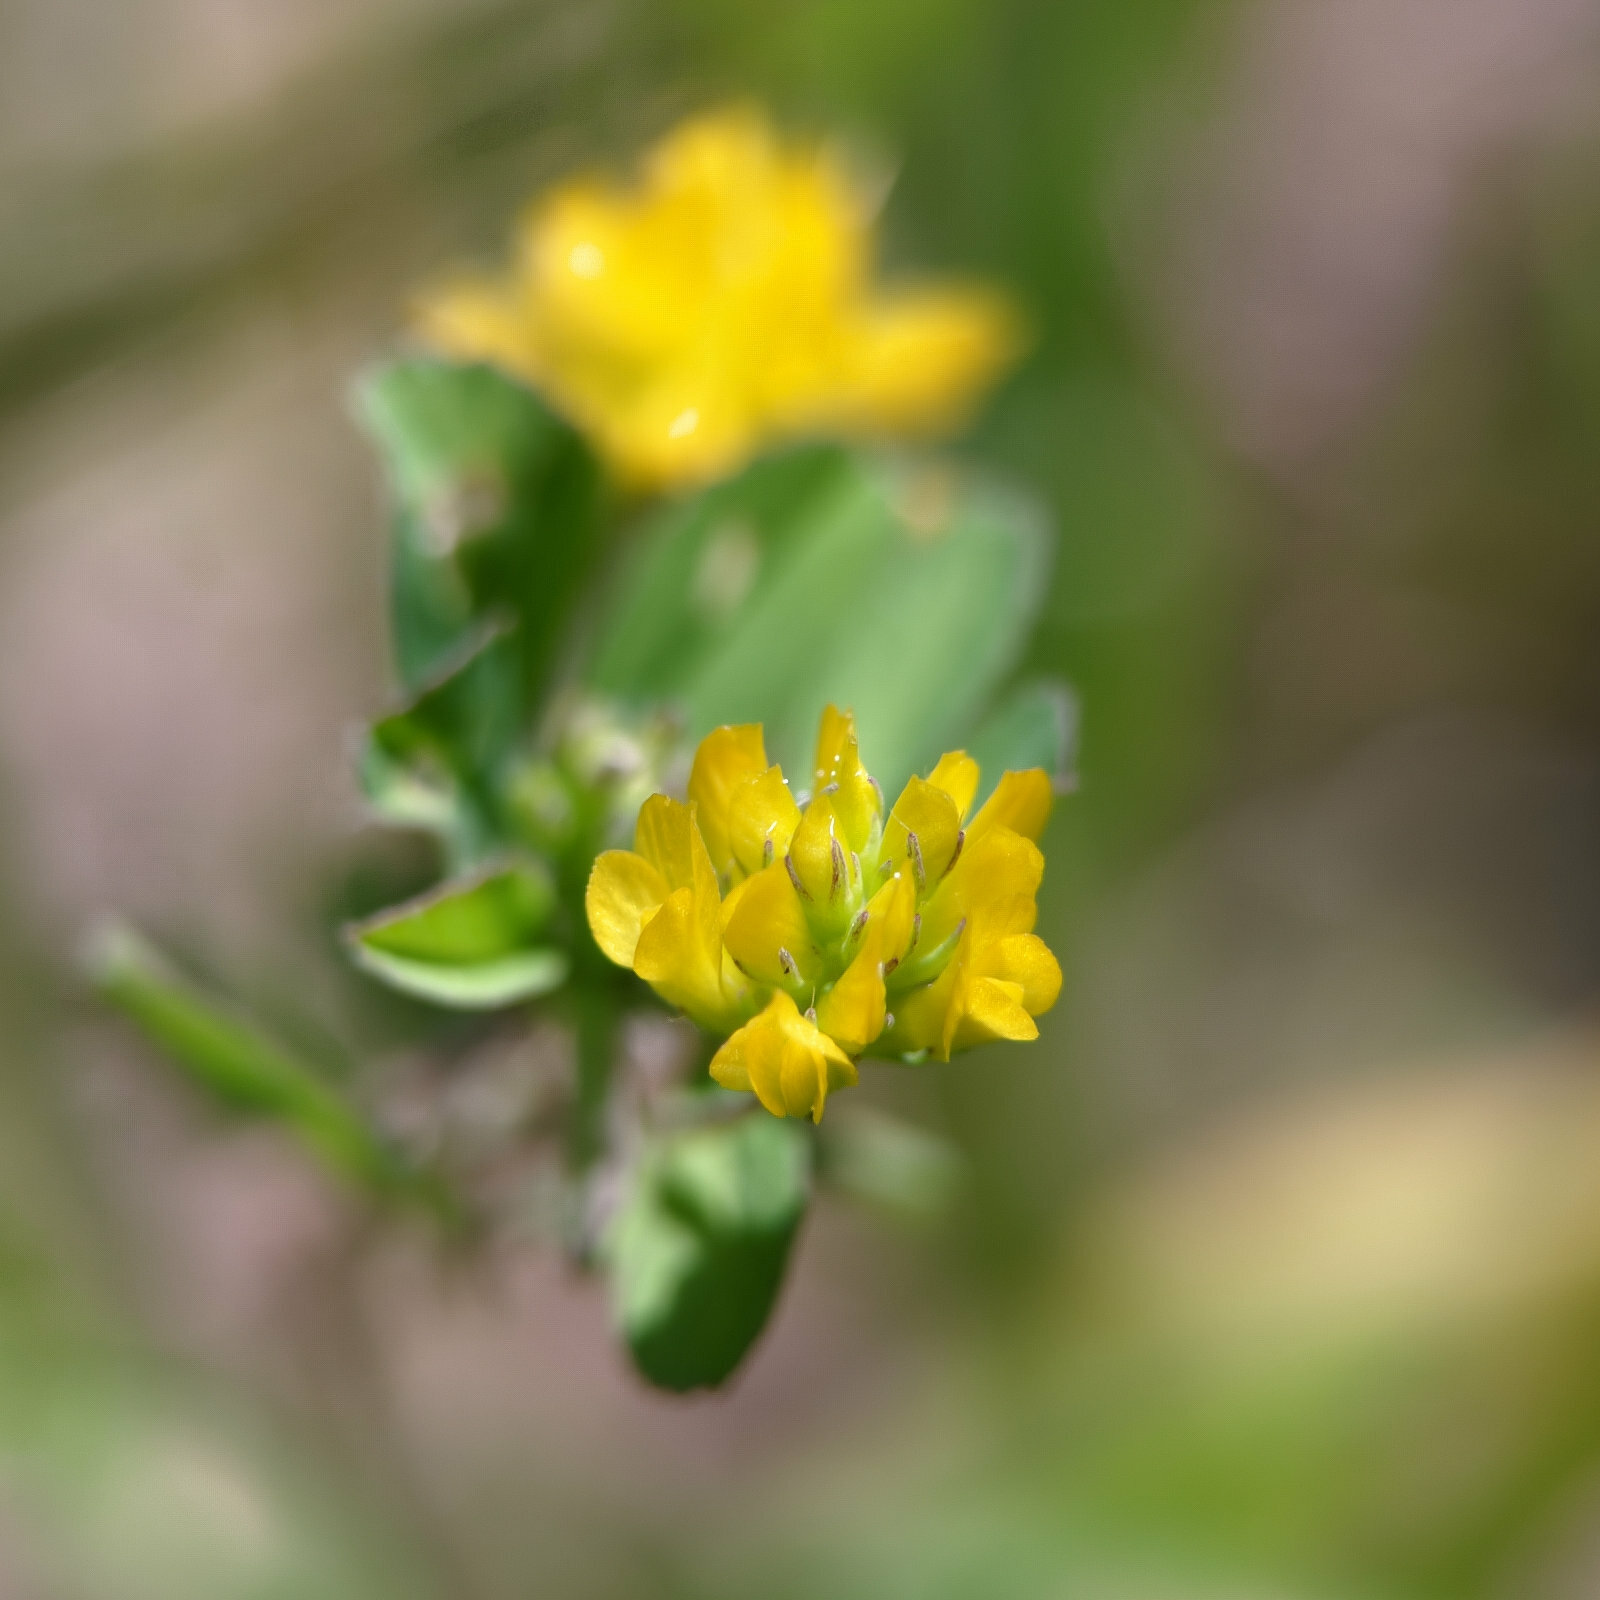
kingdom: Plantae
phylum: Tracheophyta
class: Magnoliopsida
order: Fabales
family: Fabaceae
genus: Trifolium
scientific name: Trifolium dubium
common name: Suckling clover
